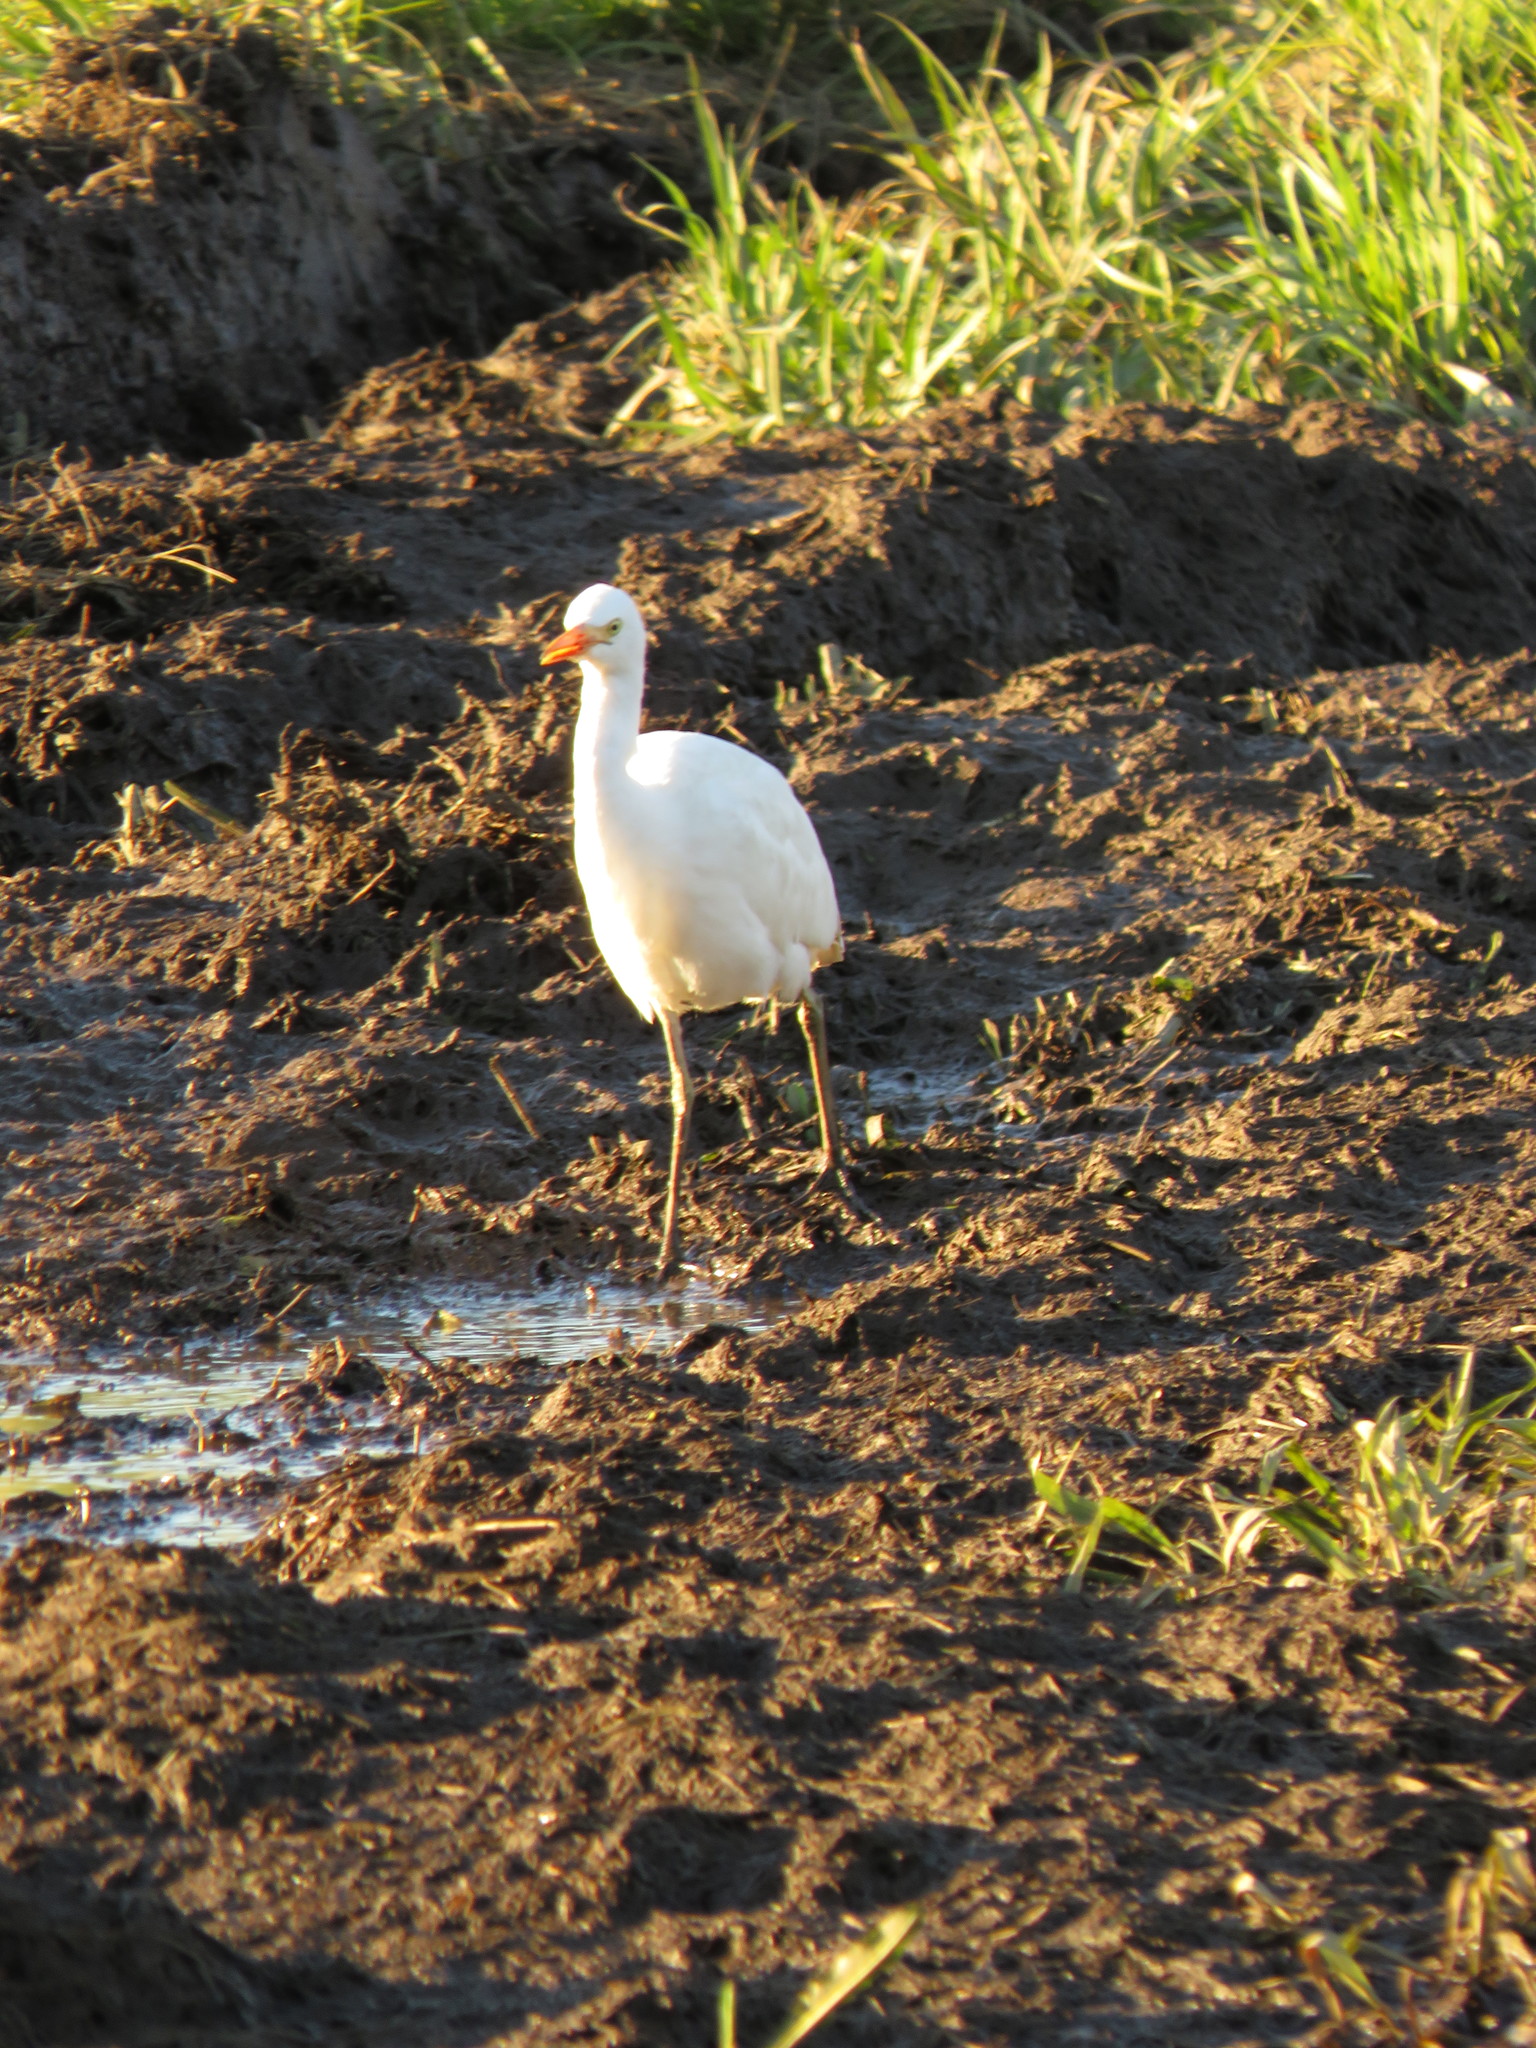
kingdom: Animalia
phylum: Chordata
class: Aves
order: Pelecaniformes
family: Ardeidae
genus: Bubulcus
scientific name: Bubulcus ibis
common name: Cattle egret
